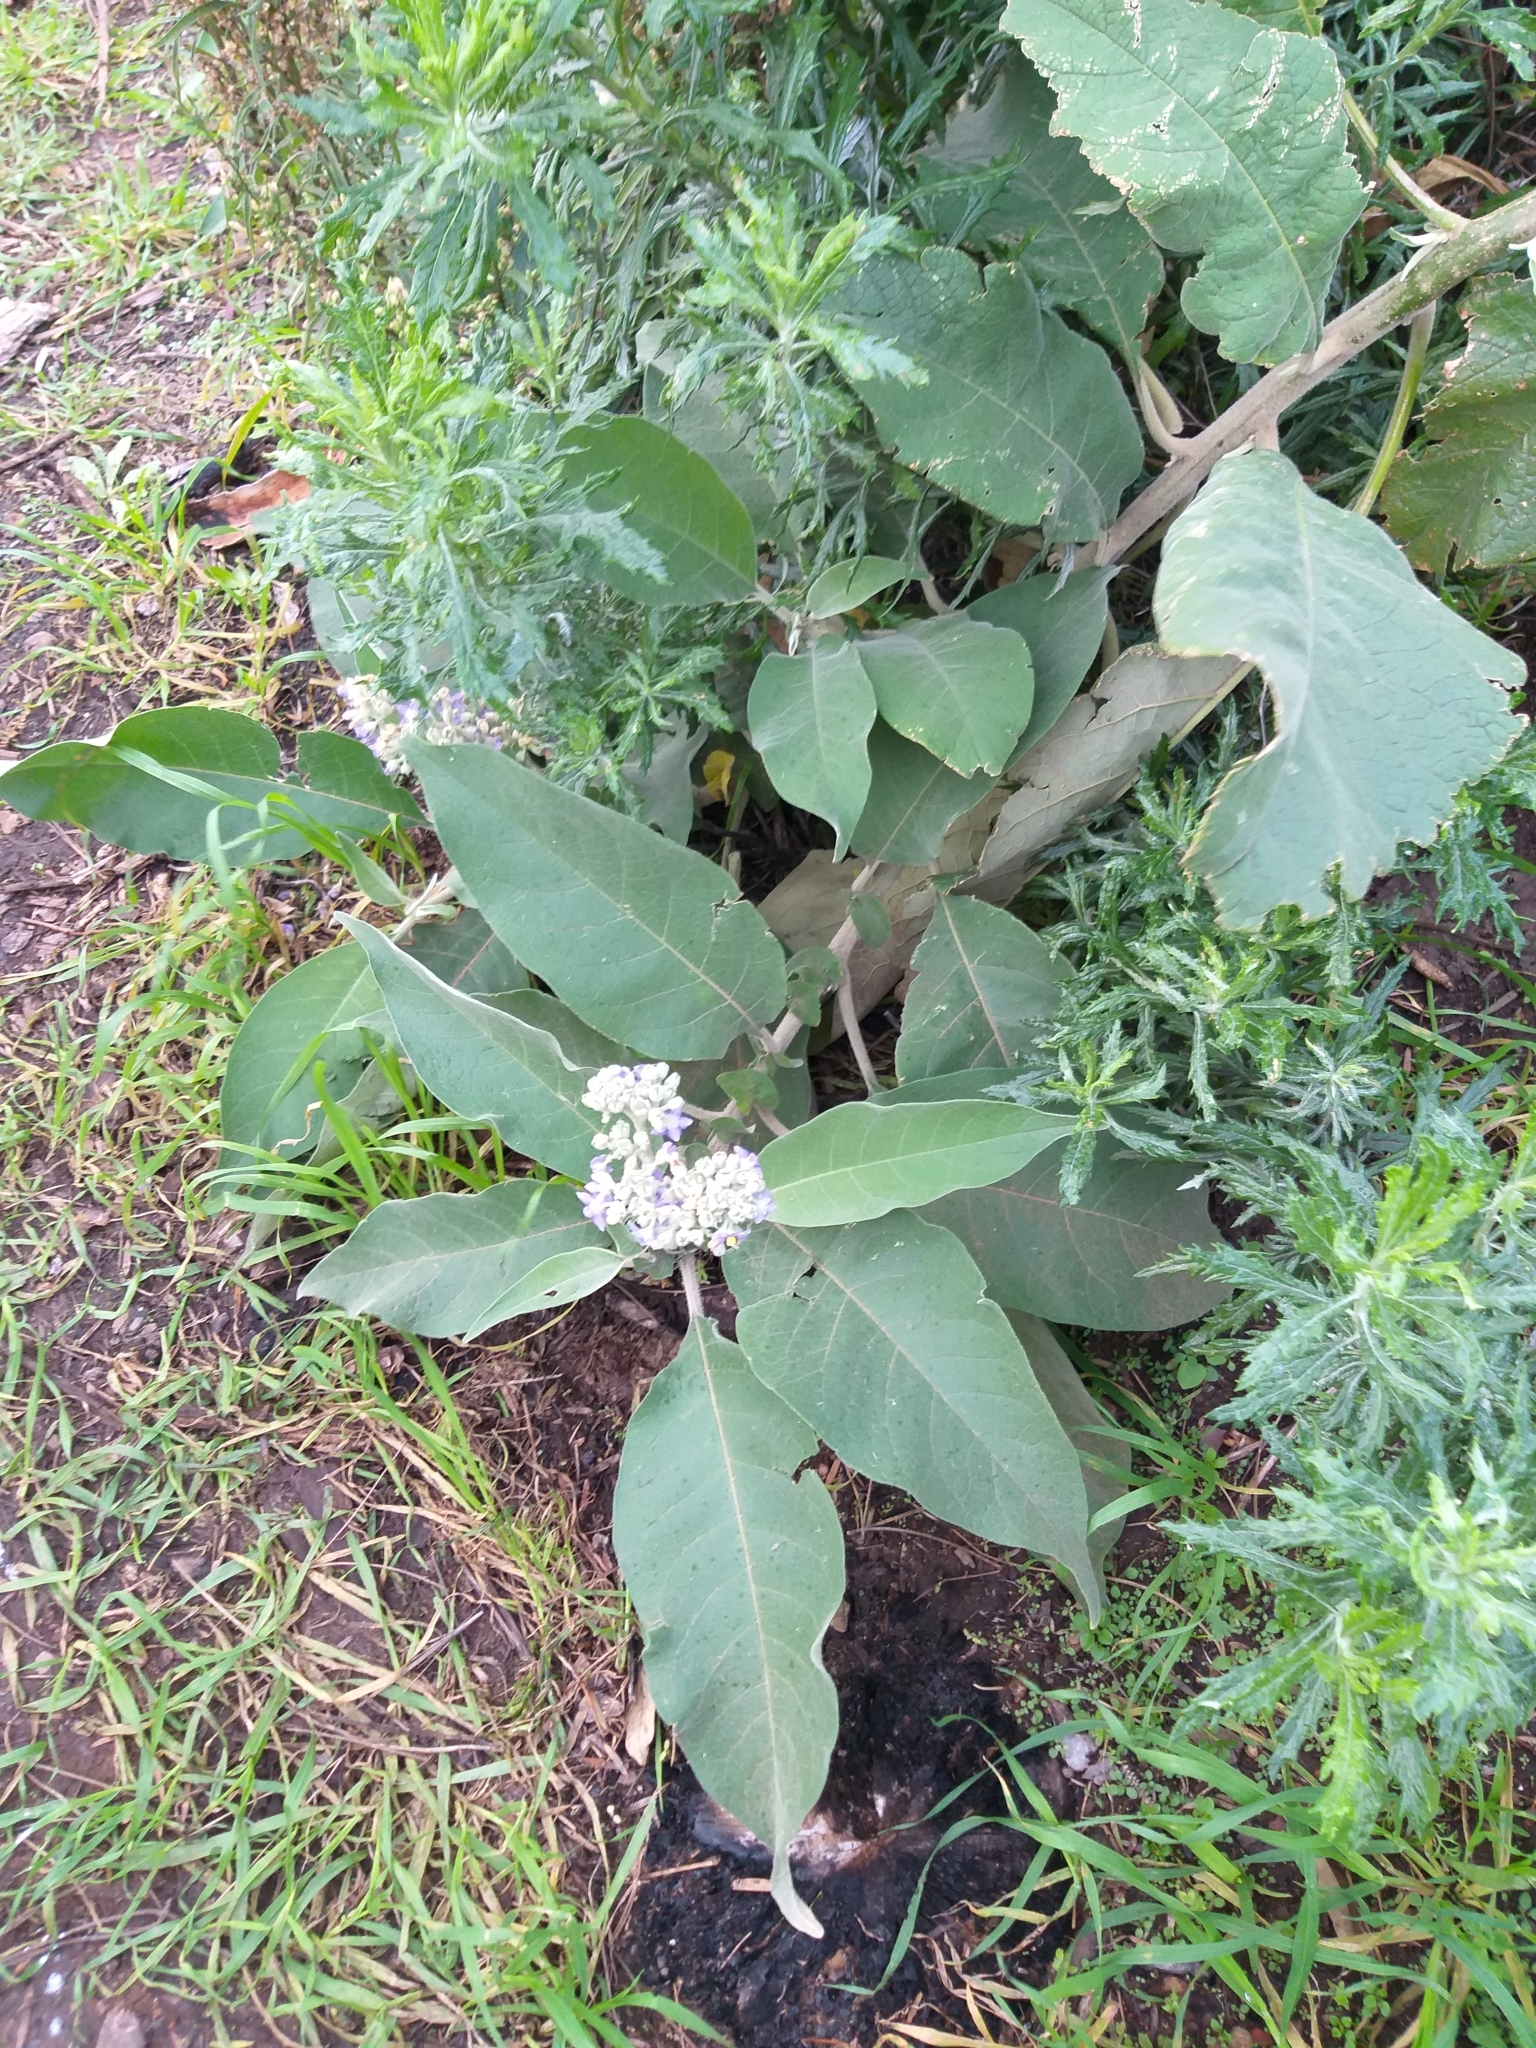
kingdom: Plantae
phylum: Tracheophyta
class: Magnoliopsida
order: Solanales
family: Solanaceae
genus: Solanum
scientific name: Solanum mauritianum
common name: Earleaf nightshade
